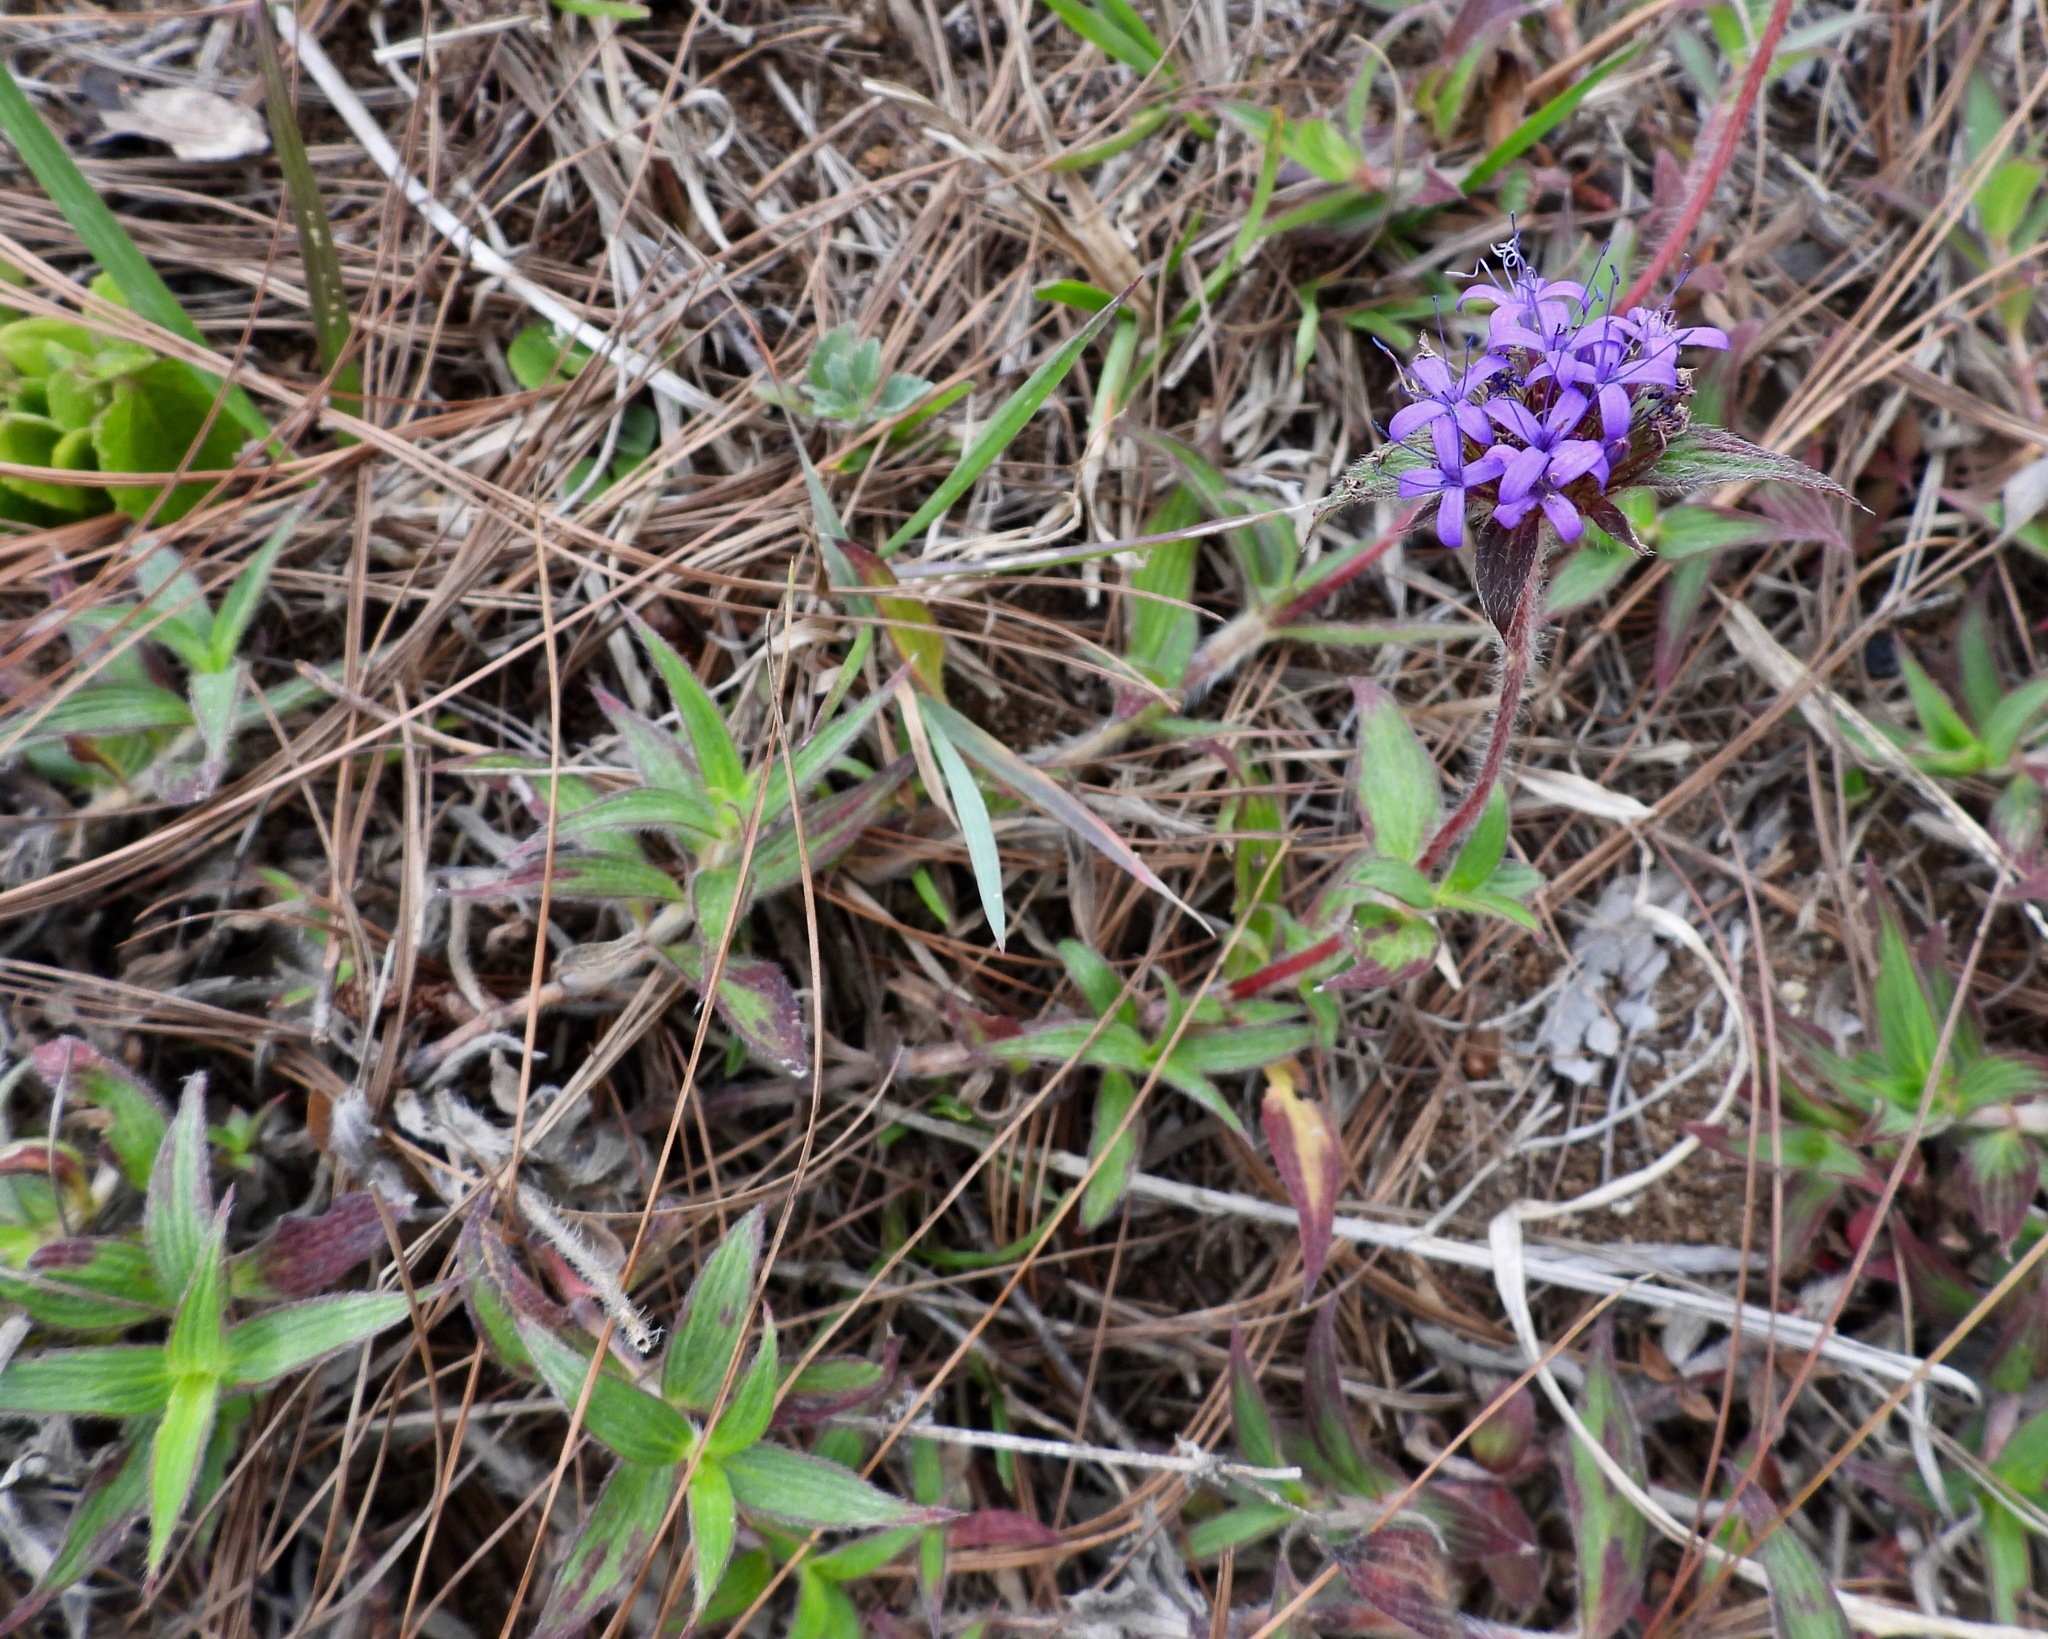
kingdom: Plantae
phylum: Tracheophyta
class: Magnoliopsida
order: Gentianales
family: Rubiaceae
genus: Crusea
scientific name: Crusea calocephala
